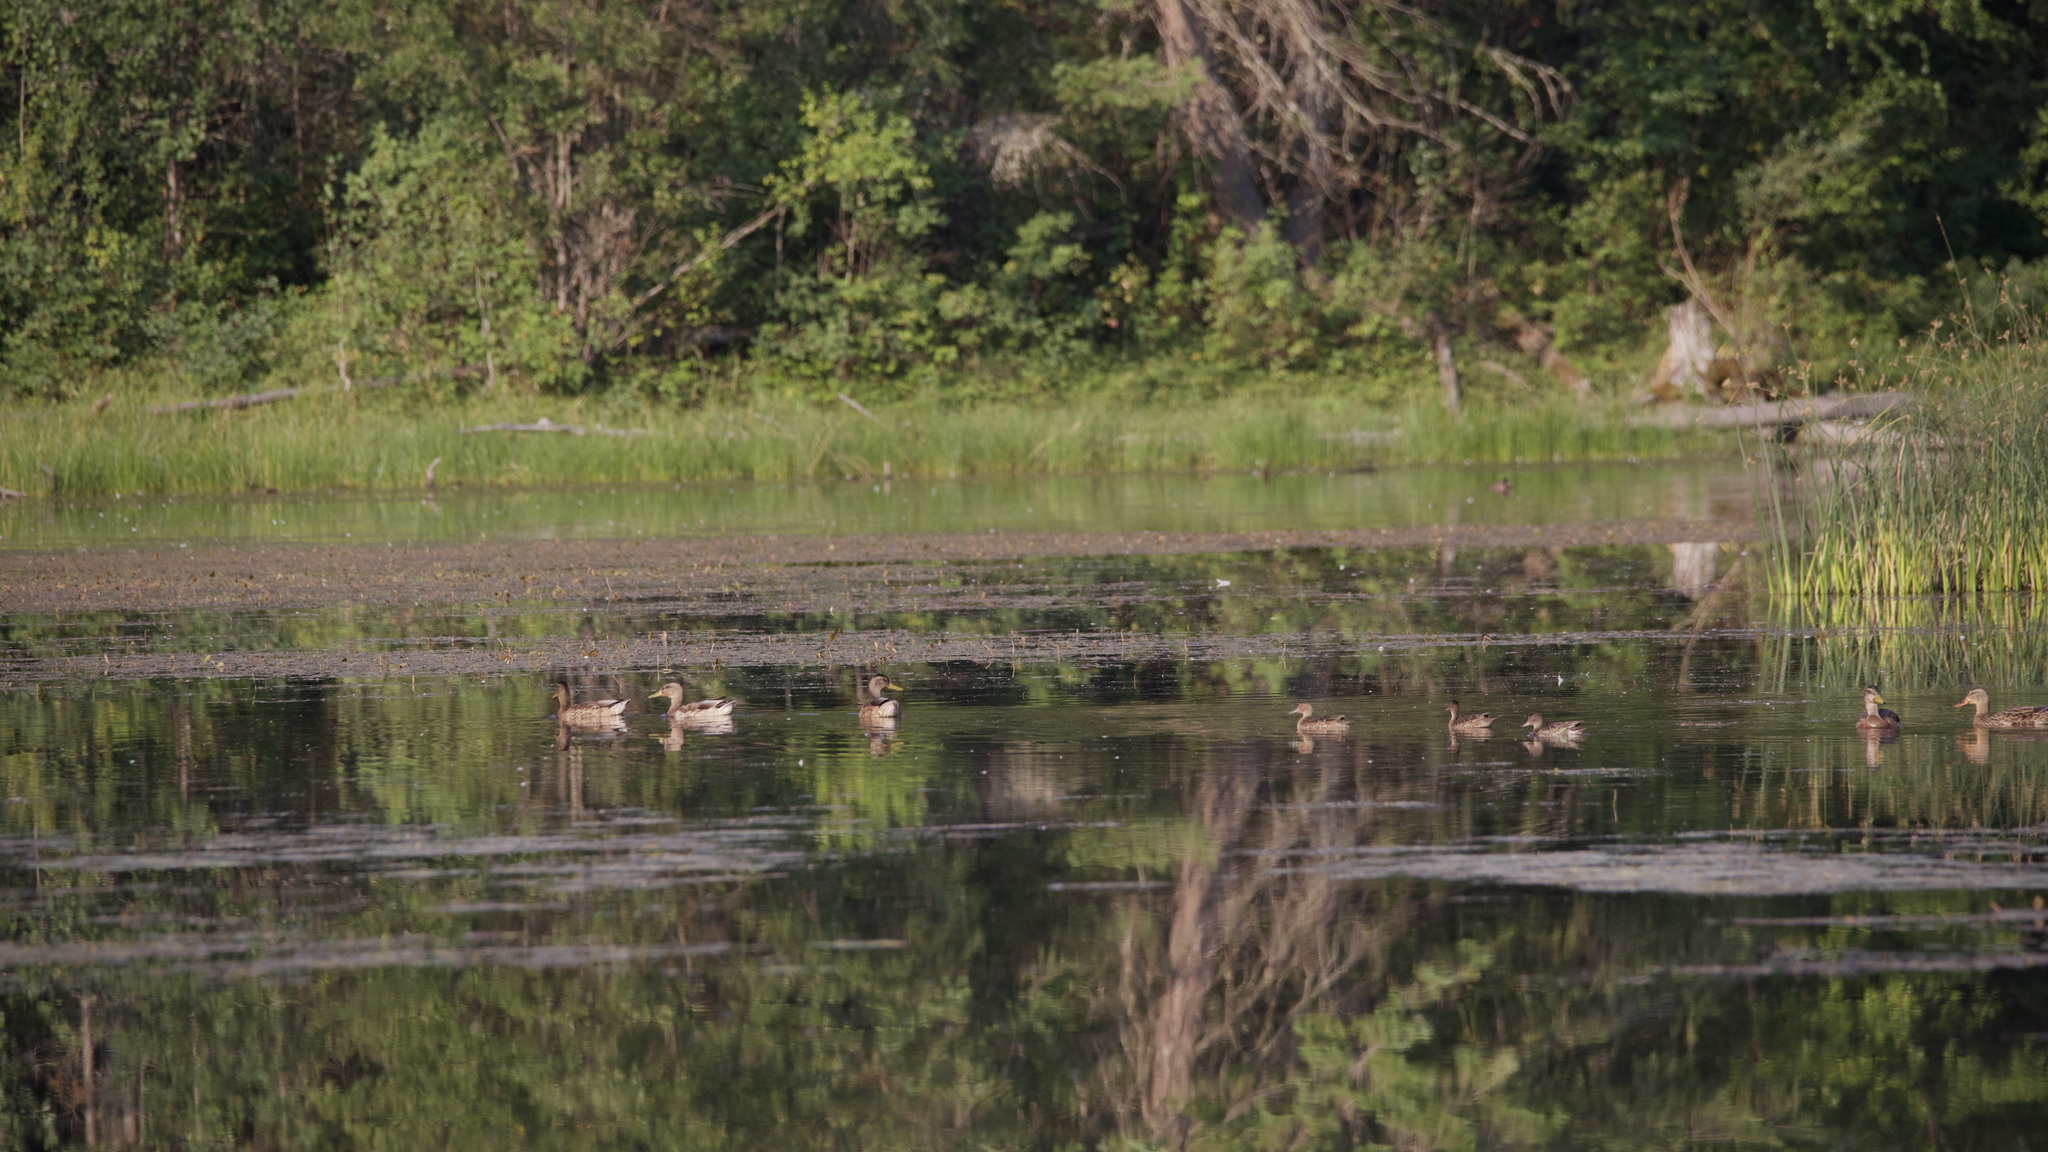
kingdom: Animalia
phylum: Chordata
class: Aves
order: Anseriformes
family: Anatidae
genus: Anas
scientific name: Anas platyrhynchos
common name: Mallard
